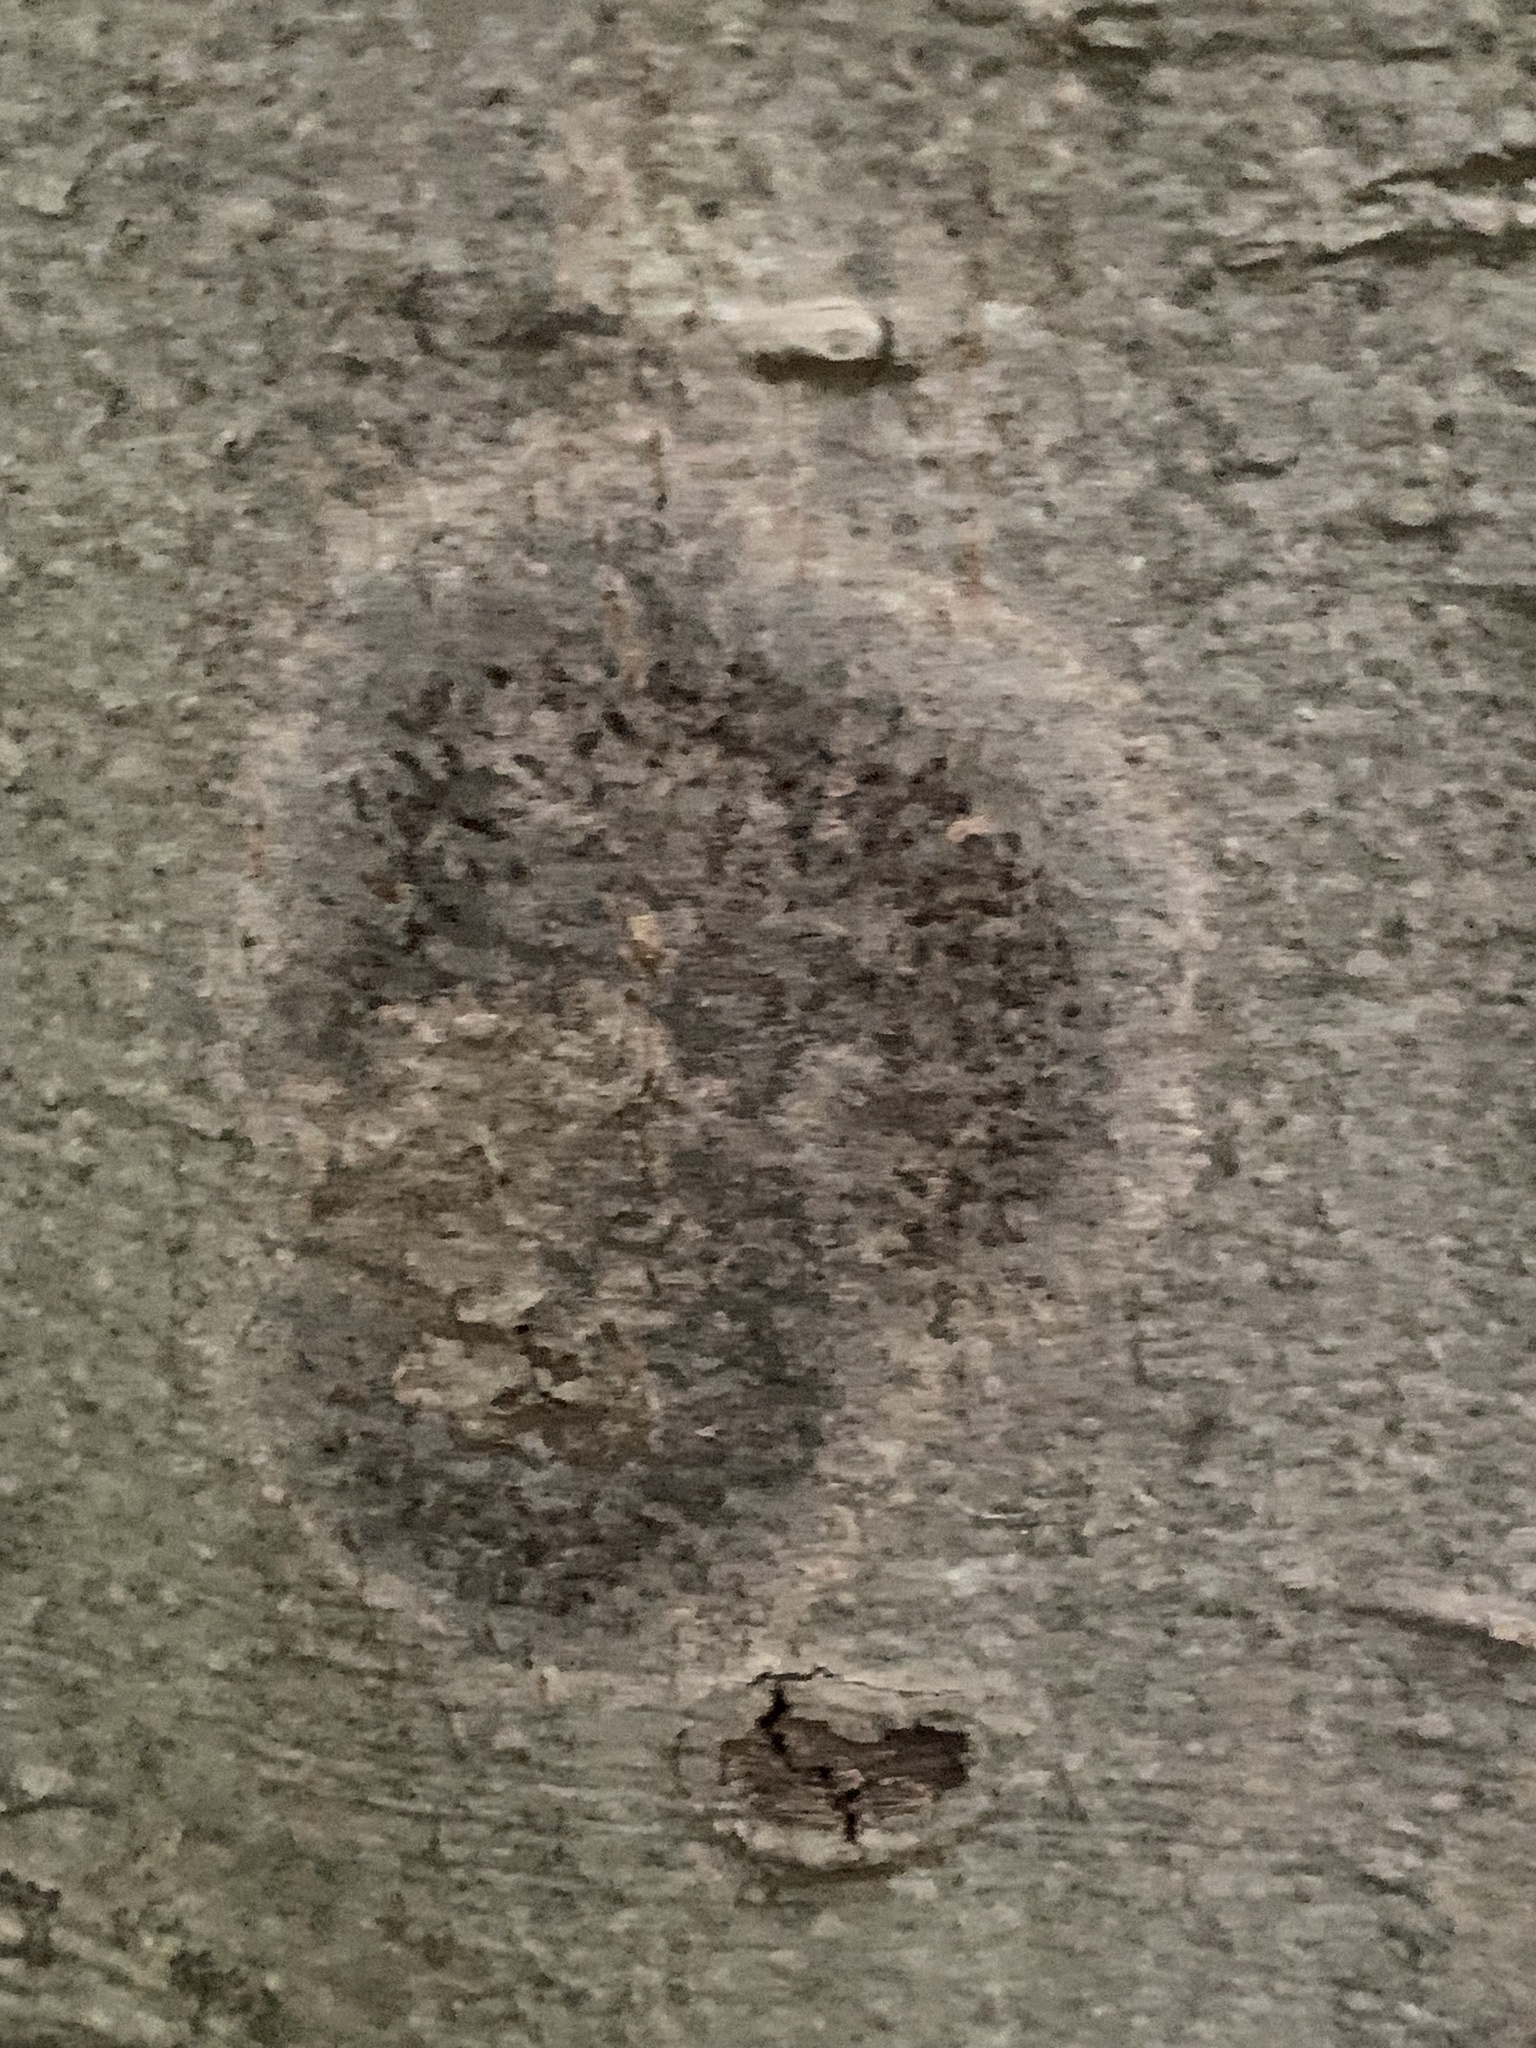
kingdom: Fungi
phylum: Ascomycota
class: Dothideomycetes
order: Trypetheliales
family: Trypetheliaceae
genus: Viridothelium
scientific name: Viridothelium virens
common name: Speckled blister lichen
